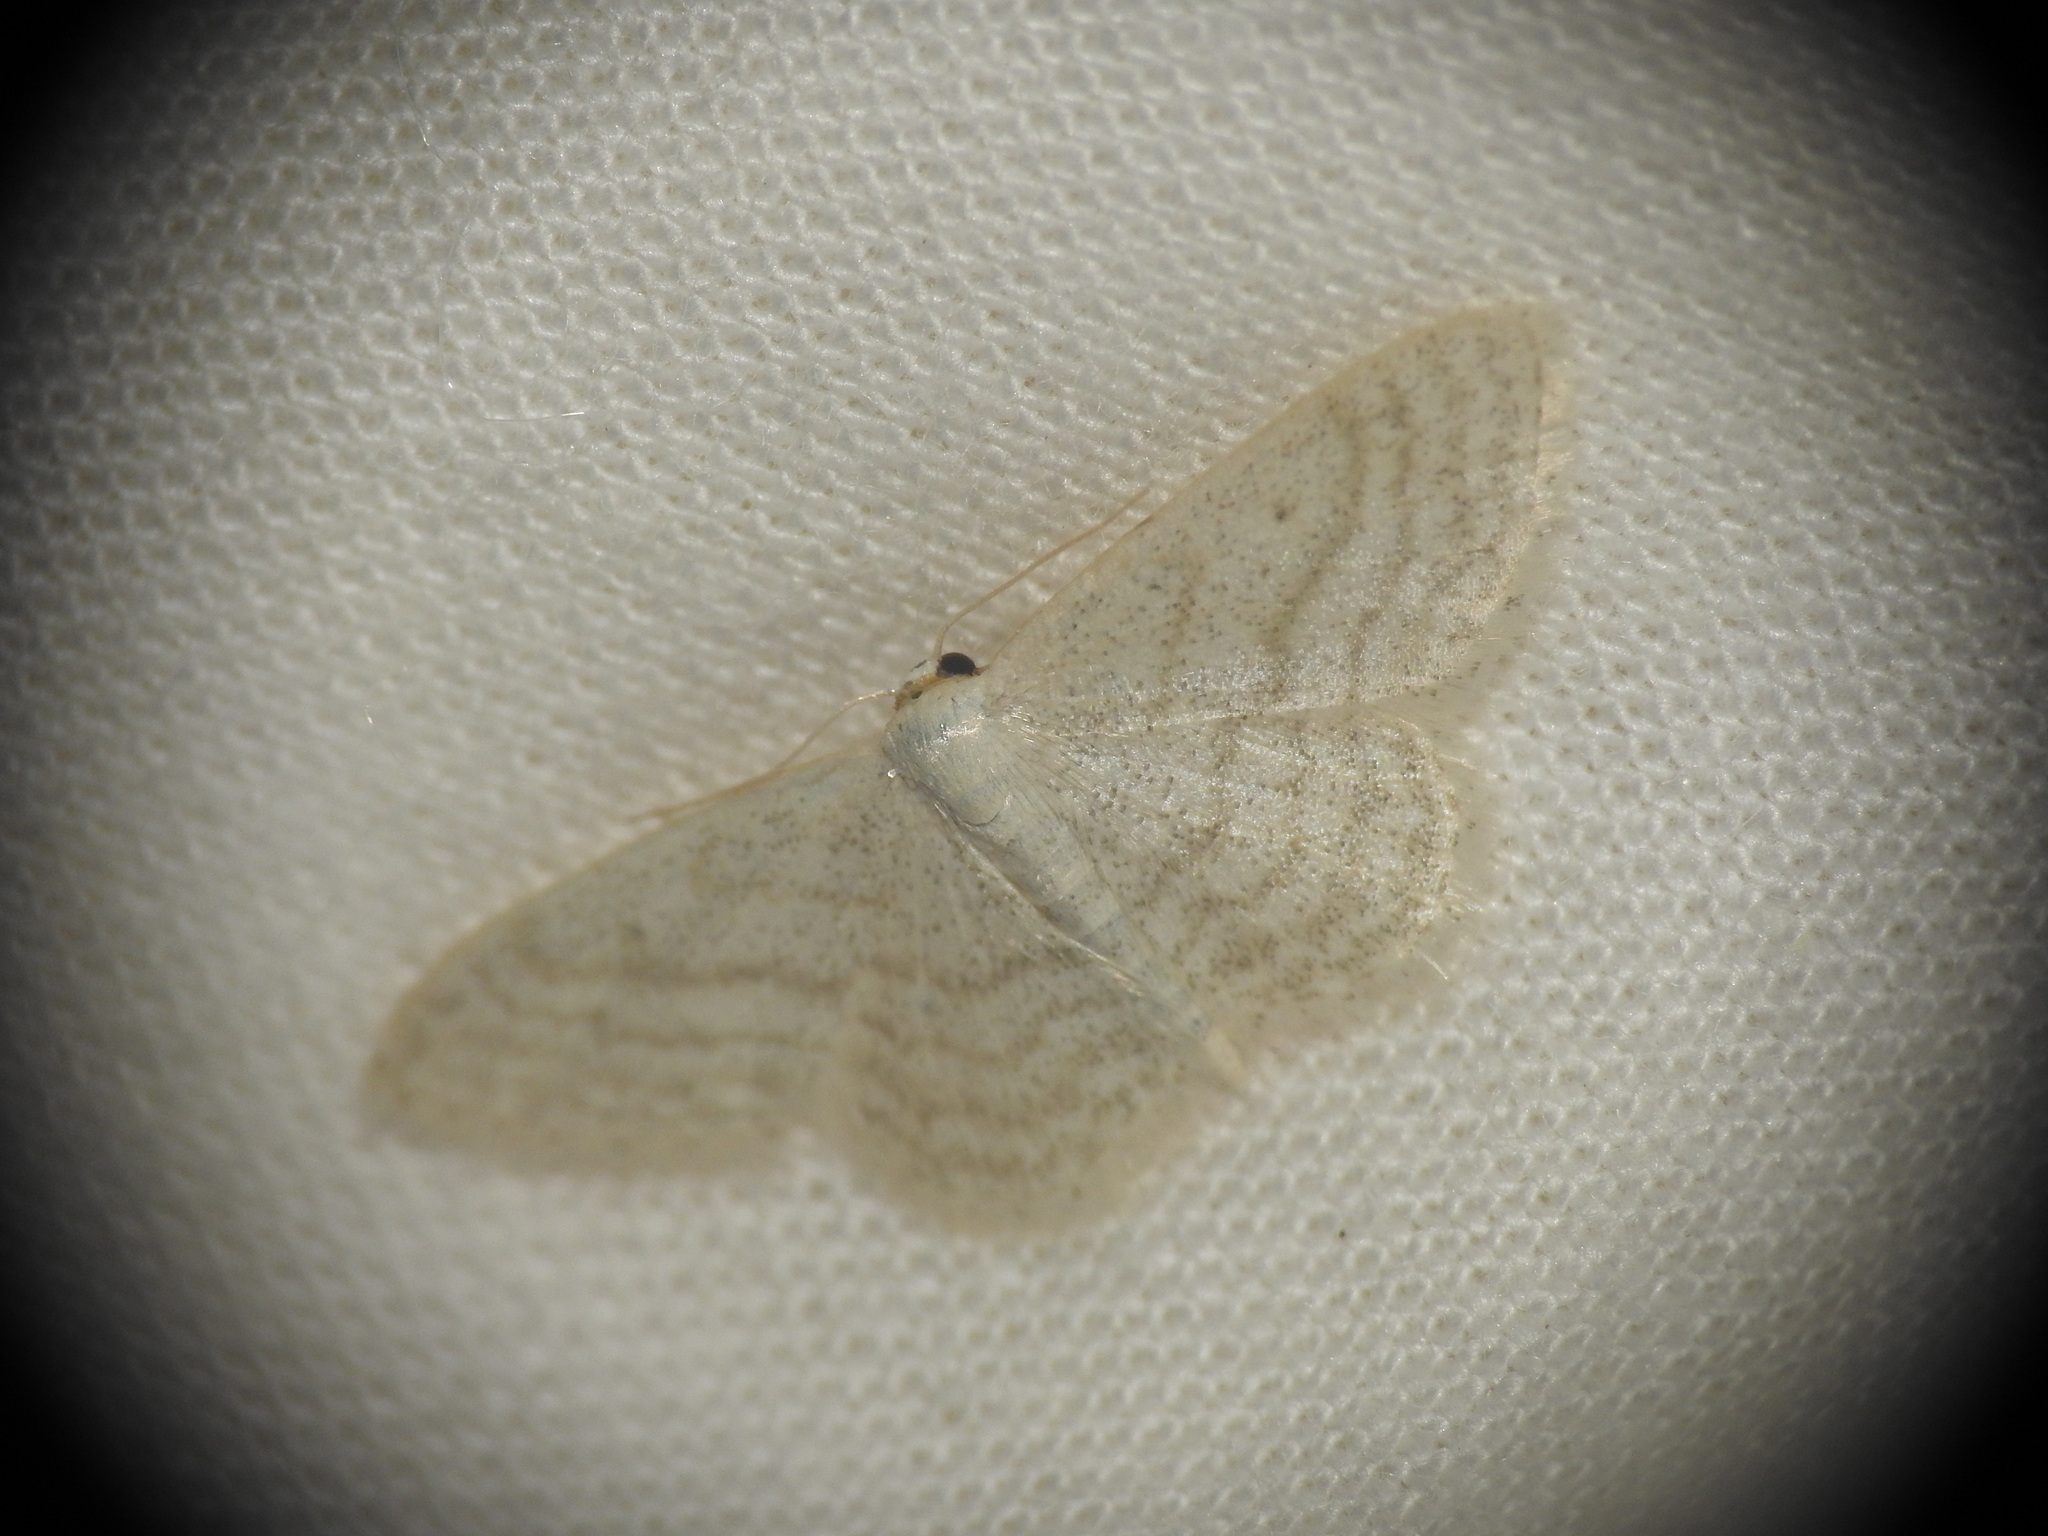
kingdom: Animalia
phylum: Arthropoda
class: Insecta
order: Lepidoptera
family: Geometridae
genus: Idaea
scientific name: Idaea subsericeata
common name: Satin wave
